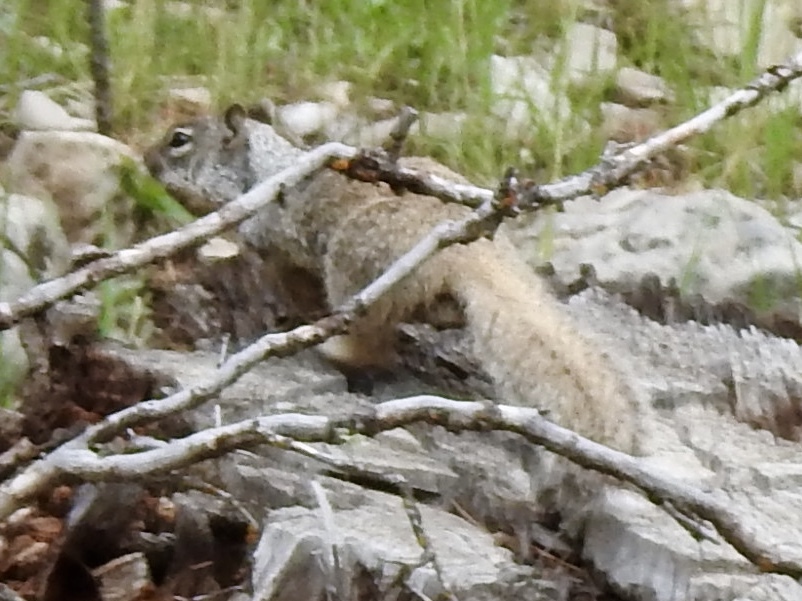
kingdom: Animalia
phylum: Chordata
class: Mammalia
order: Rodentia
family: Sciuridae
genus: Otospermophilus
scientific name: Otospermophilus variegatus
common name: Rock squirrel
